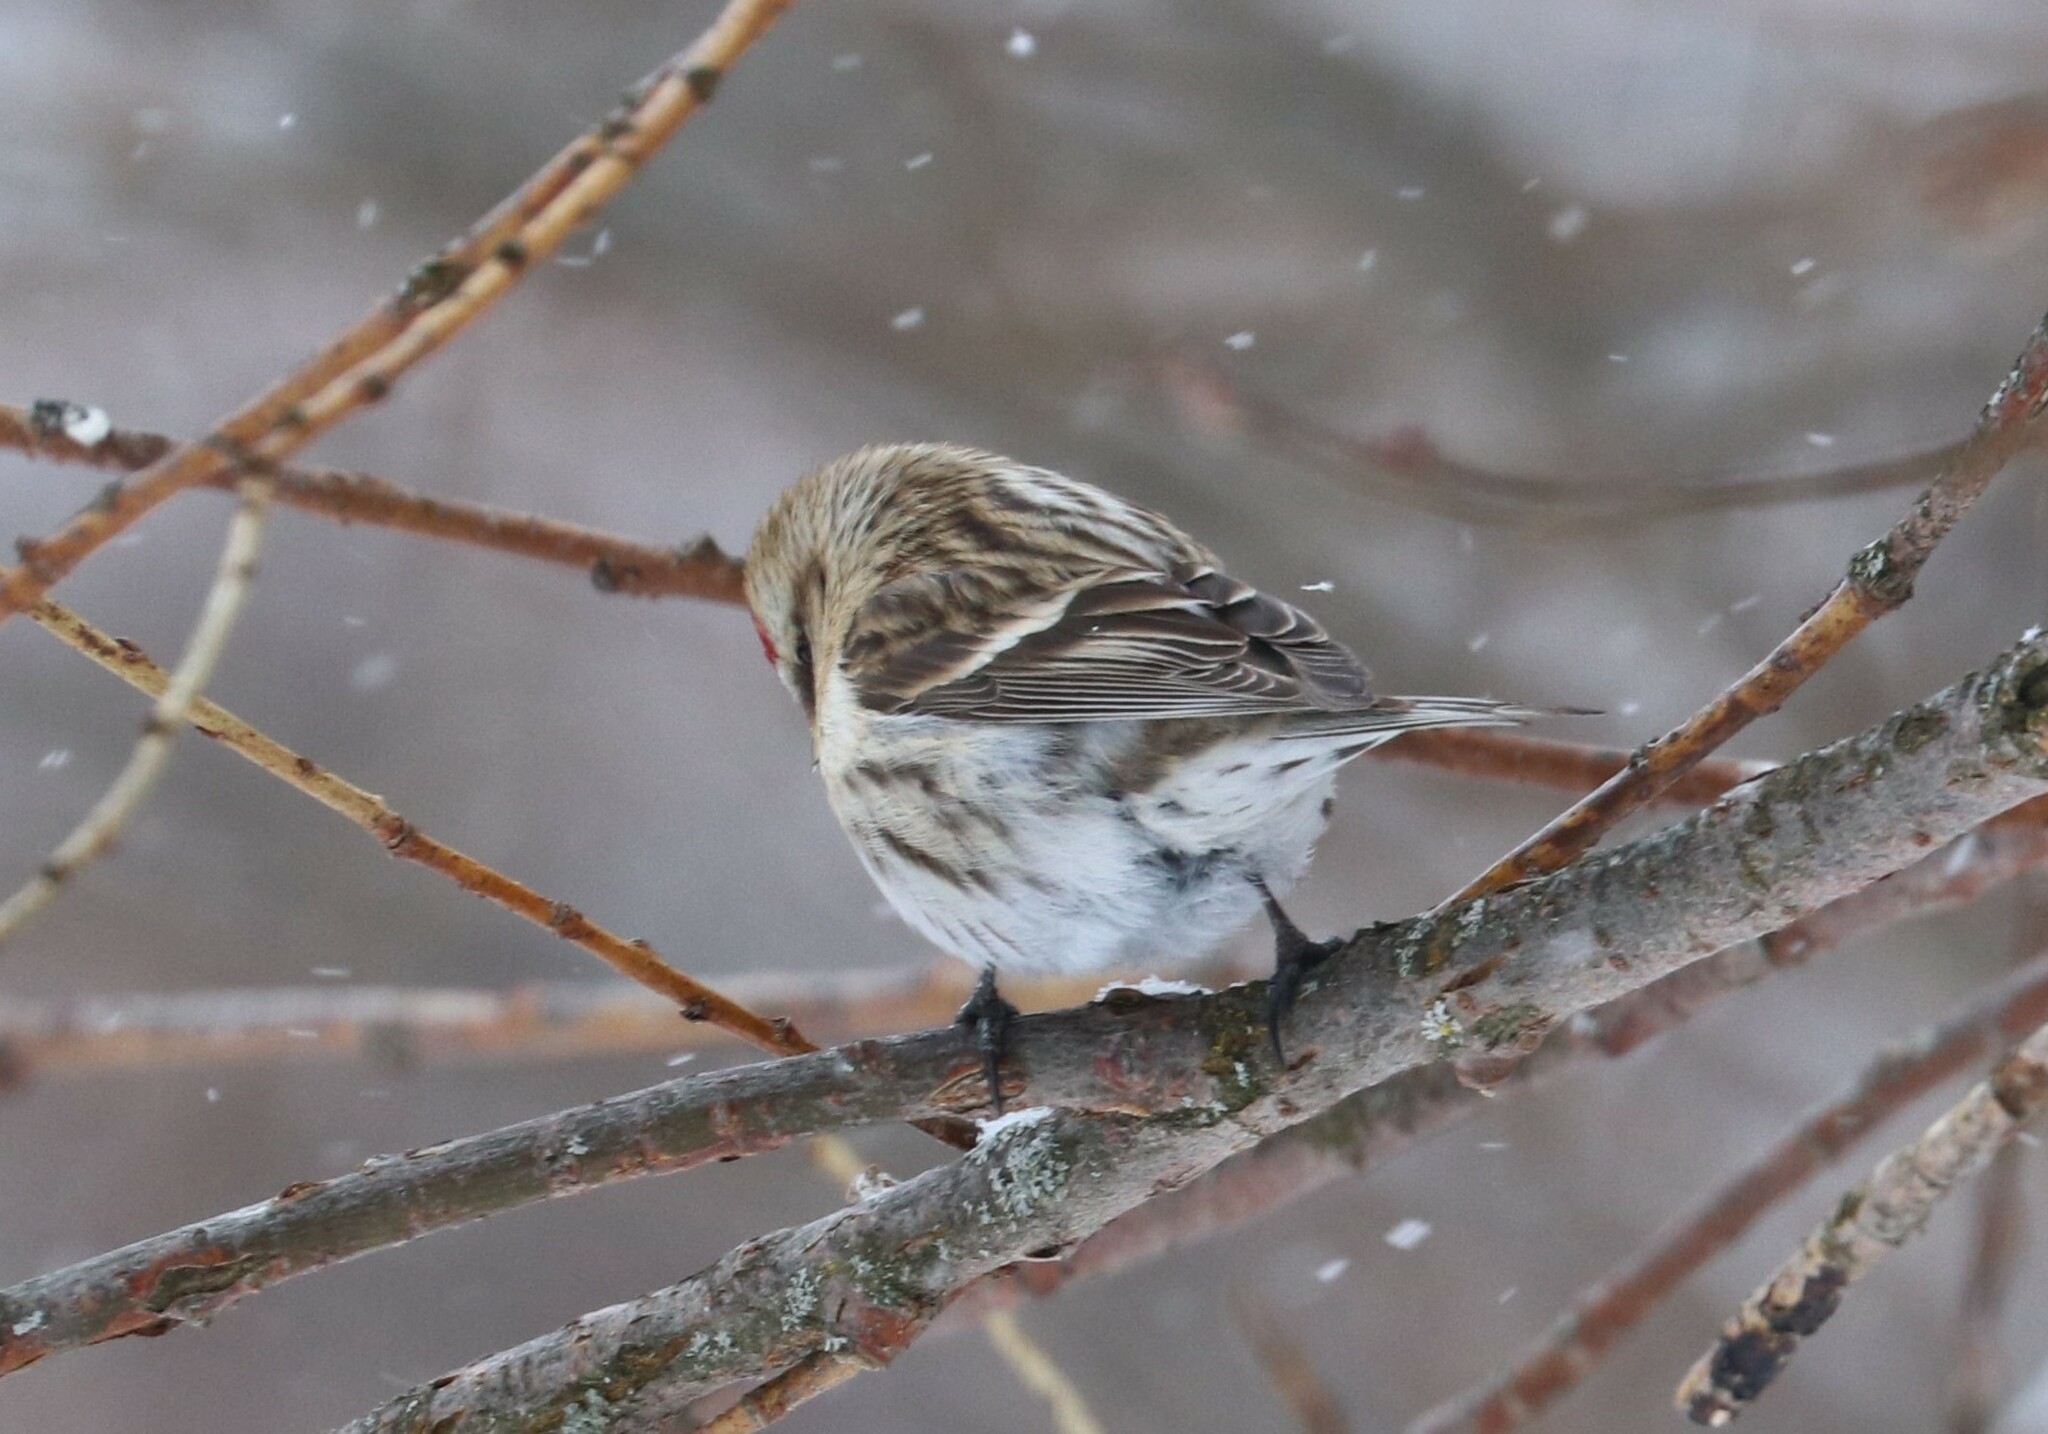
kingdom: Animalia
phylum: Chordata
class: Aves
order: Passeriformes
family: Fringillidae
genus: Acanthis
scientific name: Acanthis flammea
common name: Common redpoll
